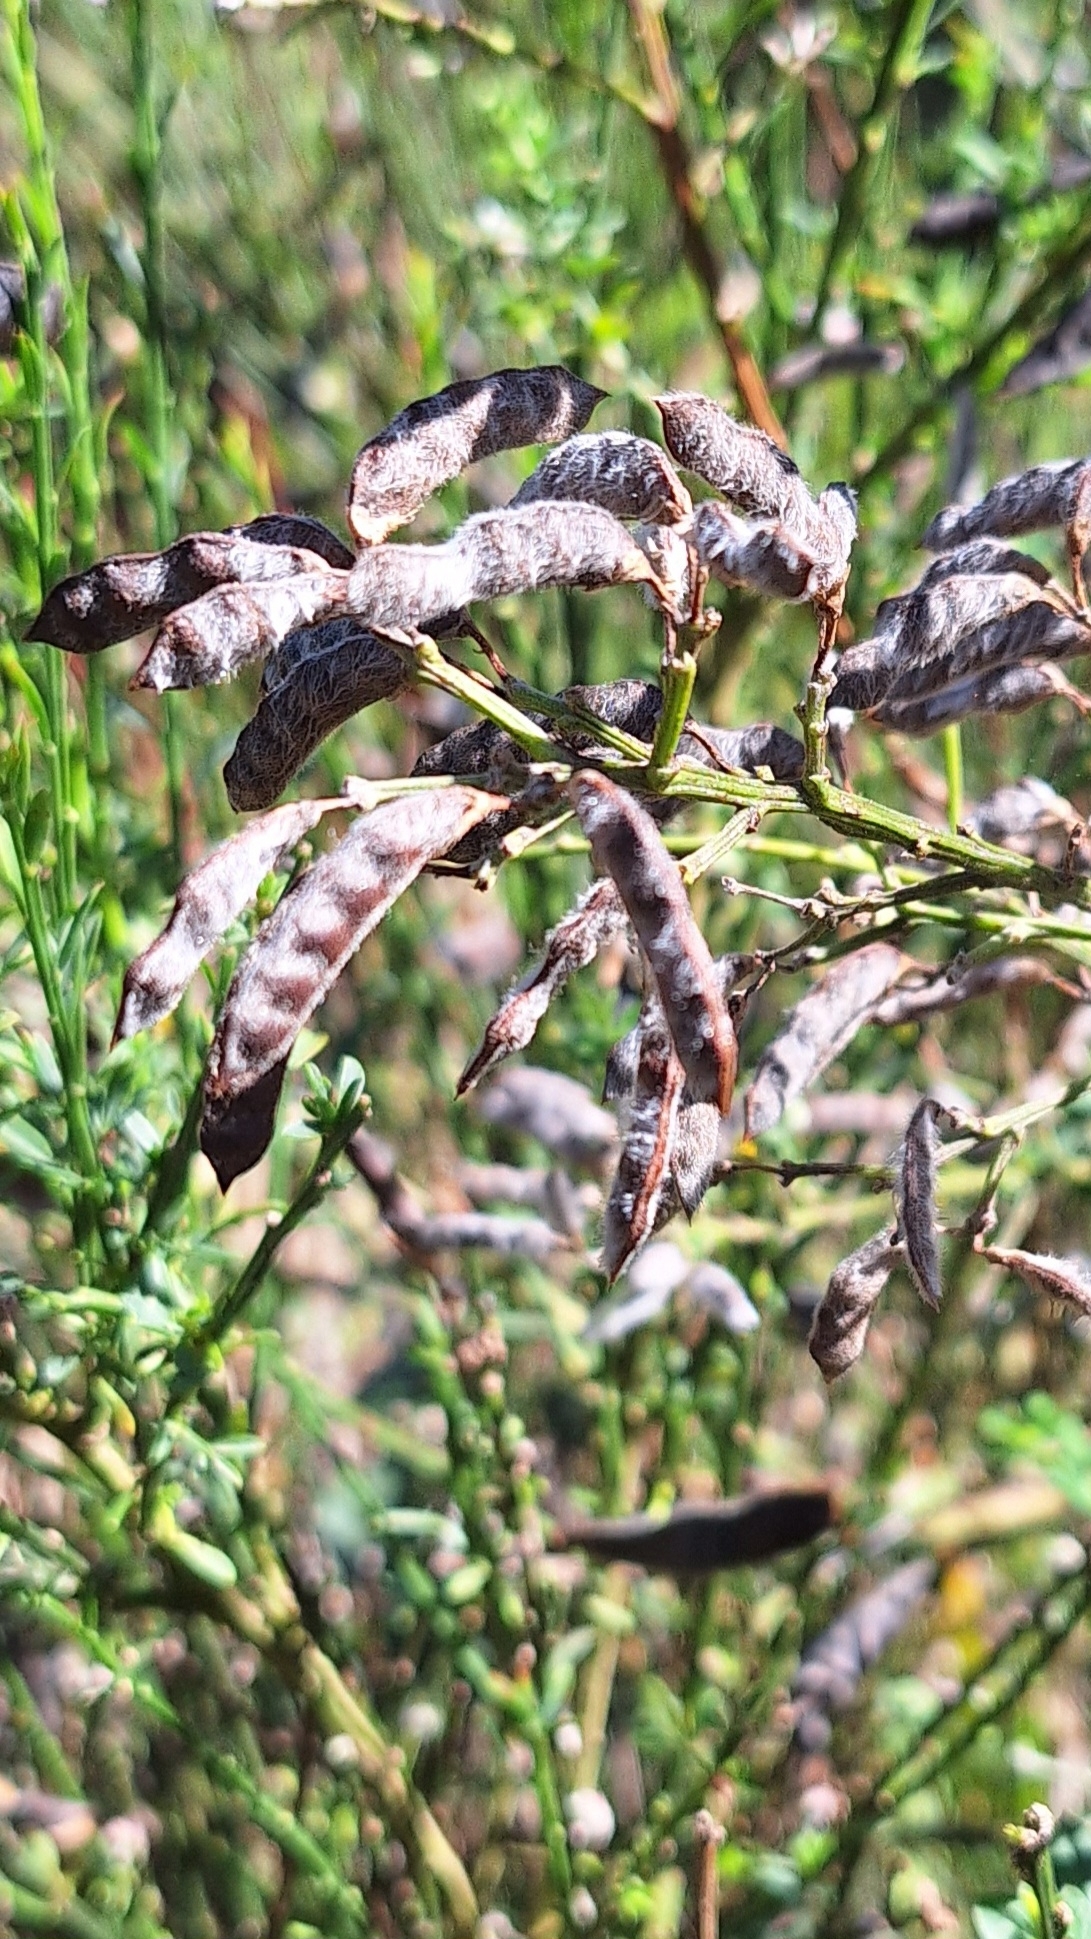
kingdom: Plantae
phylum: Tracheophyta
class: Magnoliopsida
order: Fabales
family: Fabaceae
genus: Cytisus
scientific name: Cytisus scoparius
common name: Scotch broom
